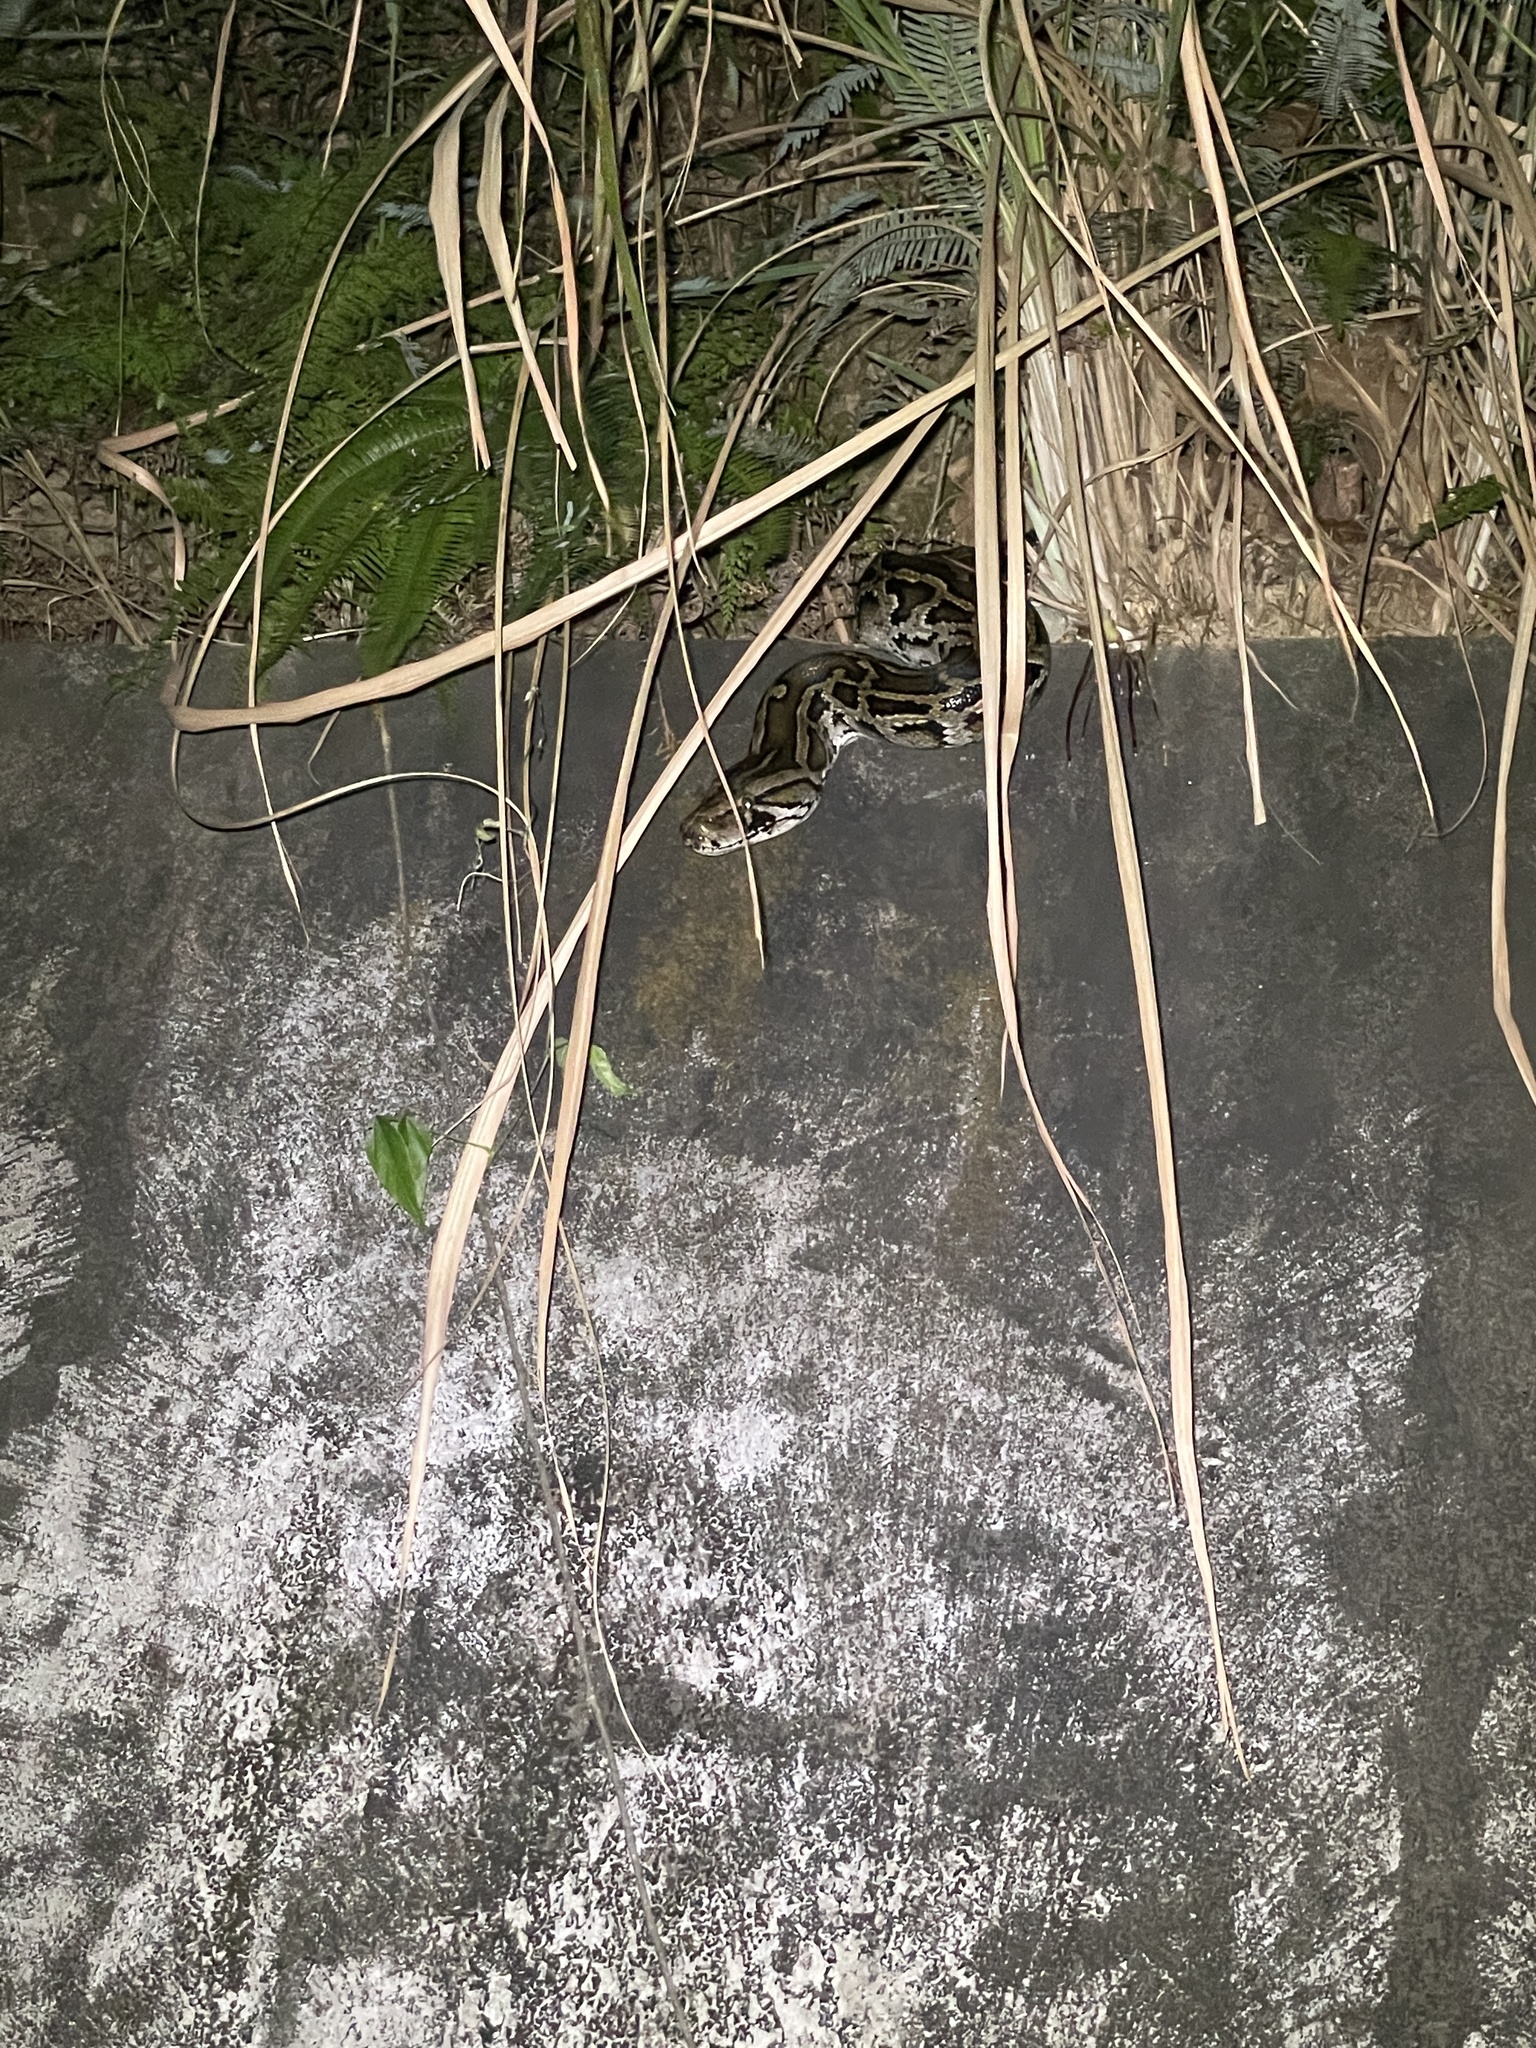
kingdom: Animalia
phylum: Chordata
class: Squamata
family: Pythonidae
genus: Python
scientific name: Python bivittatus
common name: Burmese python
